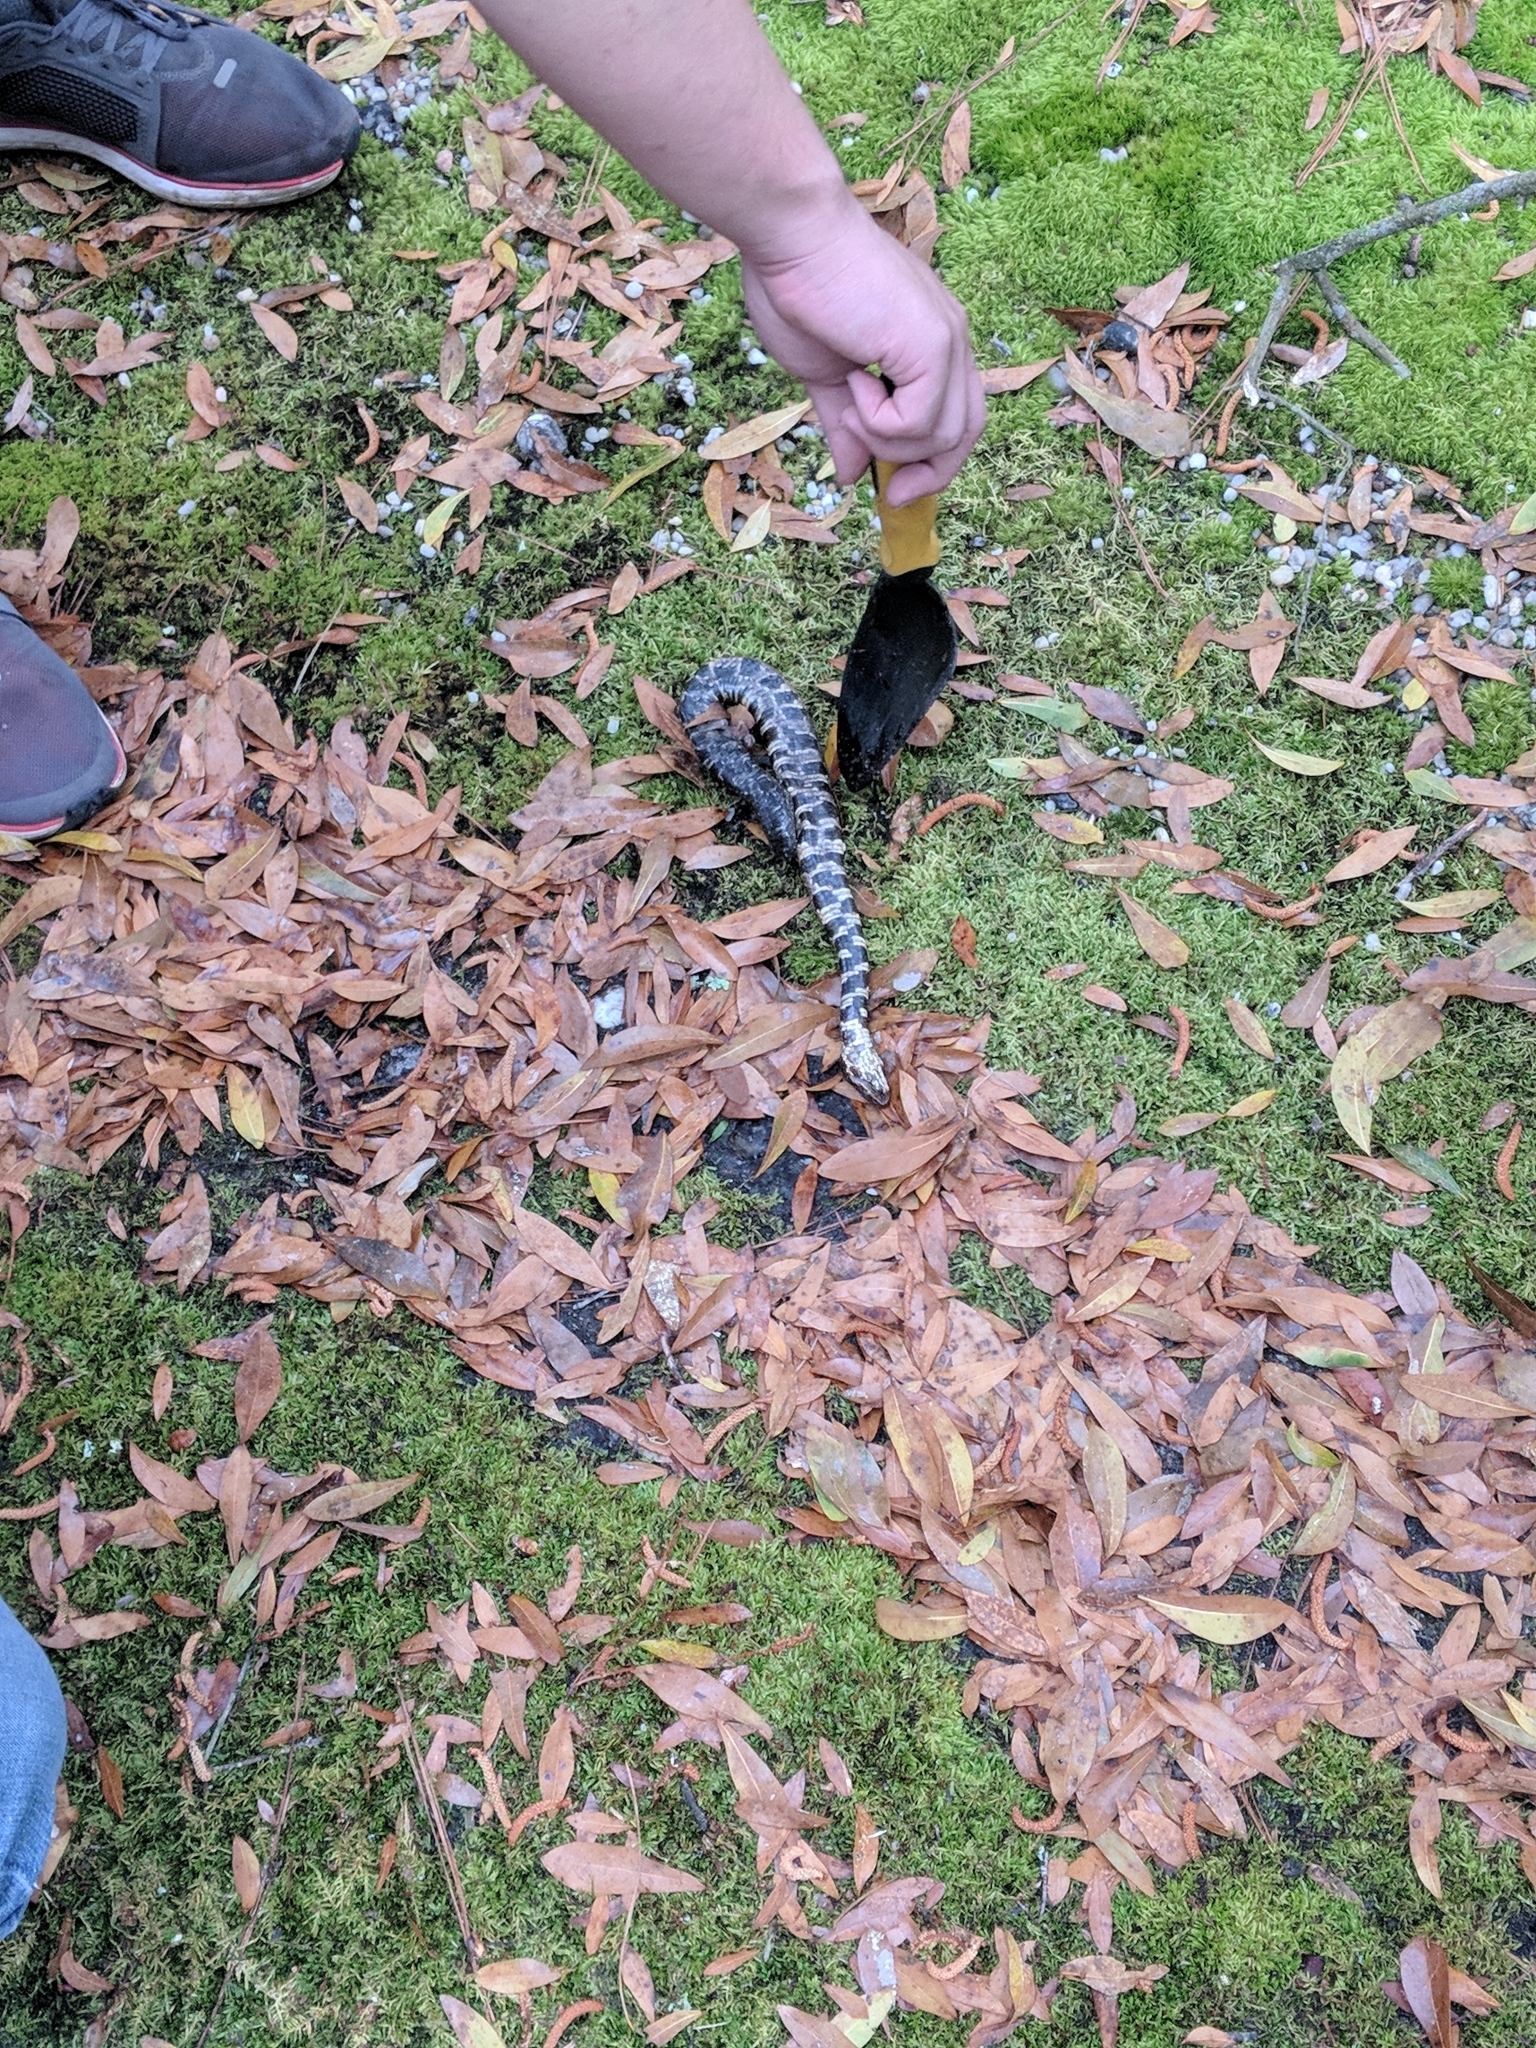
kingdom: Animalia
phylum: Chordata
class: Squamata
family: Viperidae
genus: Agkistrodon
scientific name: Agkistrodon piscivorus
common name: Cottonmouth
